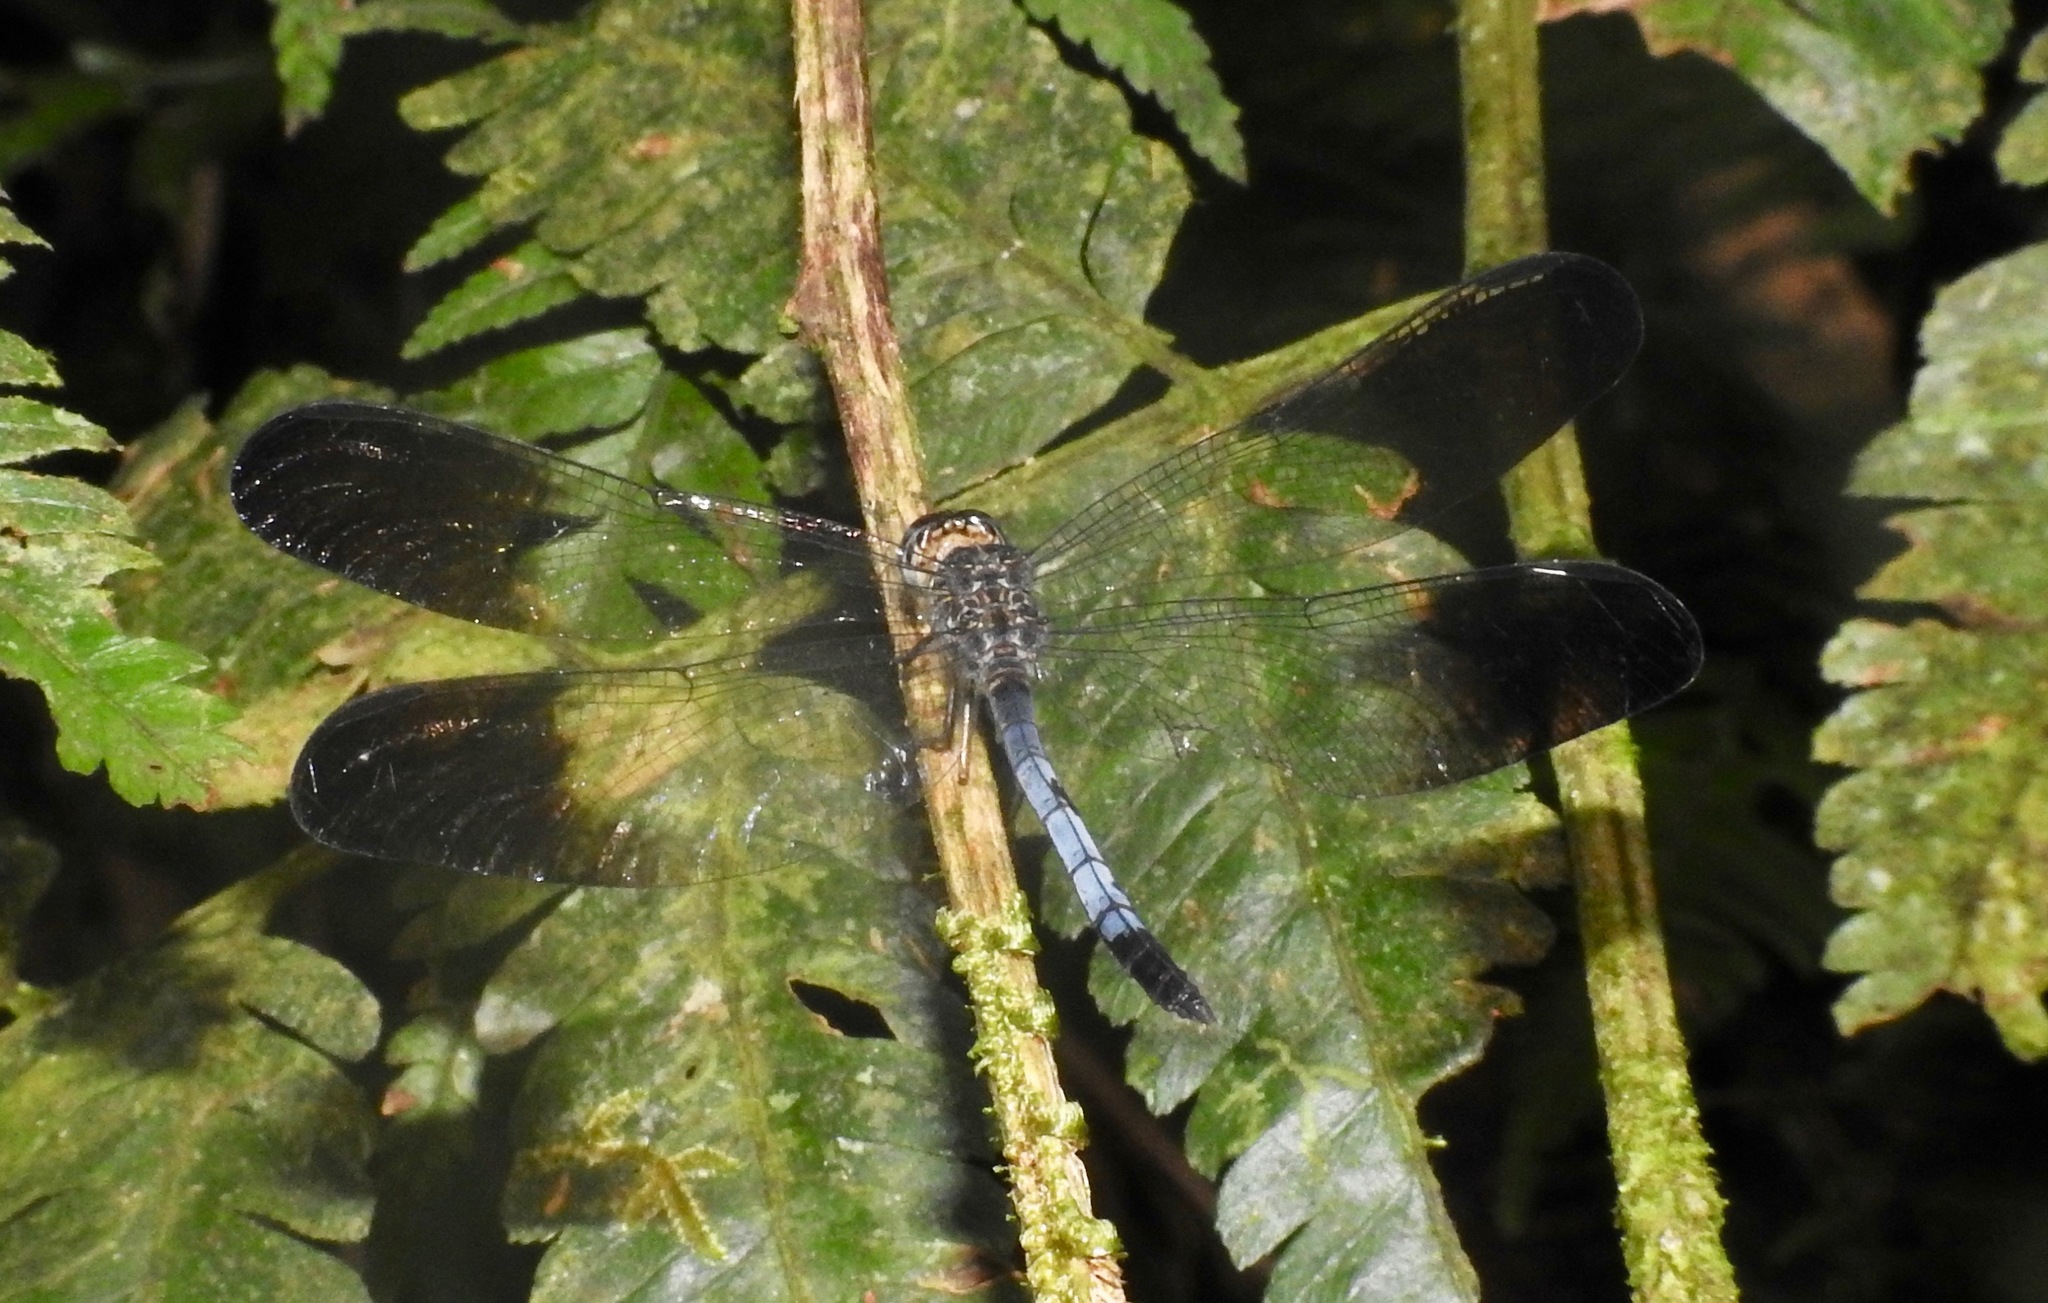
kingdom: Animalia
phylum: Arthropoda
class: Insecta
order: Odonata
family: Libellulidae
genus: Uracis
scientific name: Uracis fastigiata
